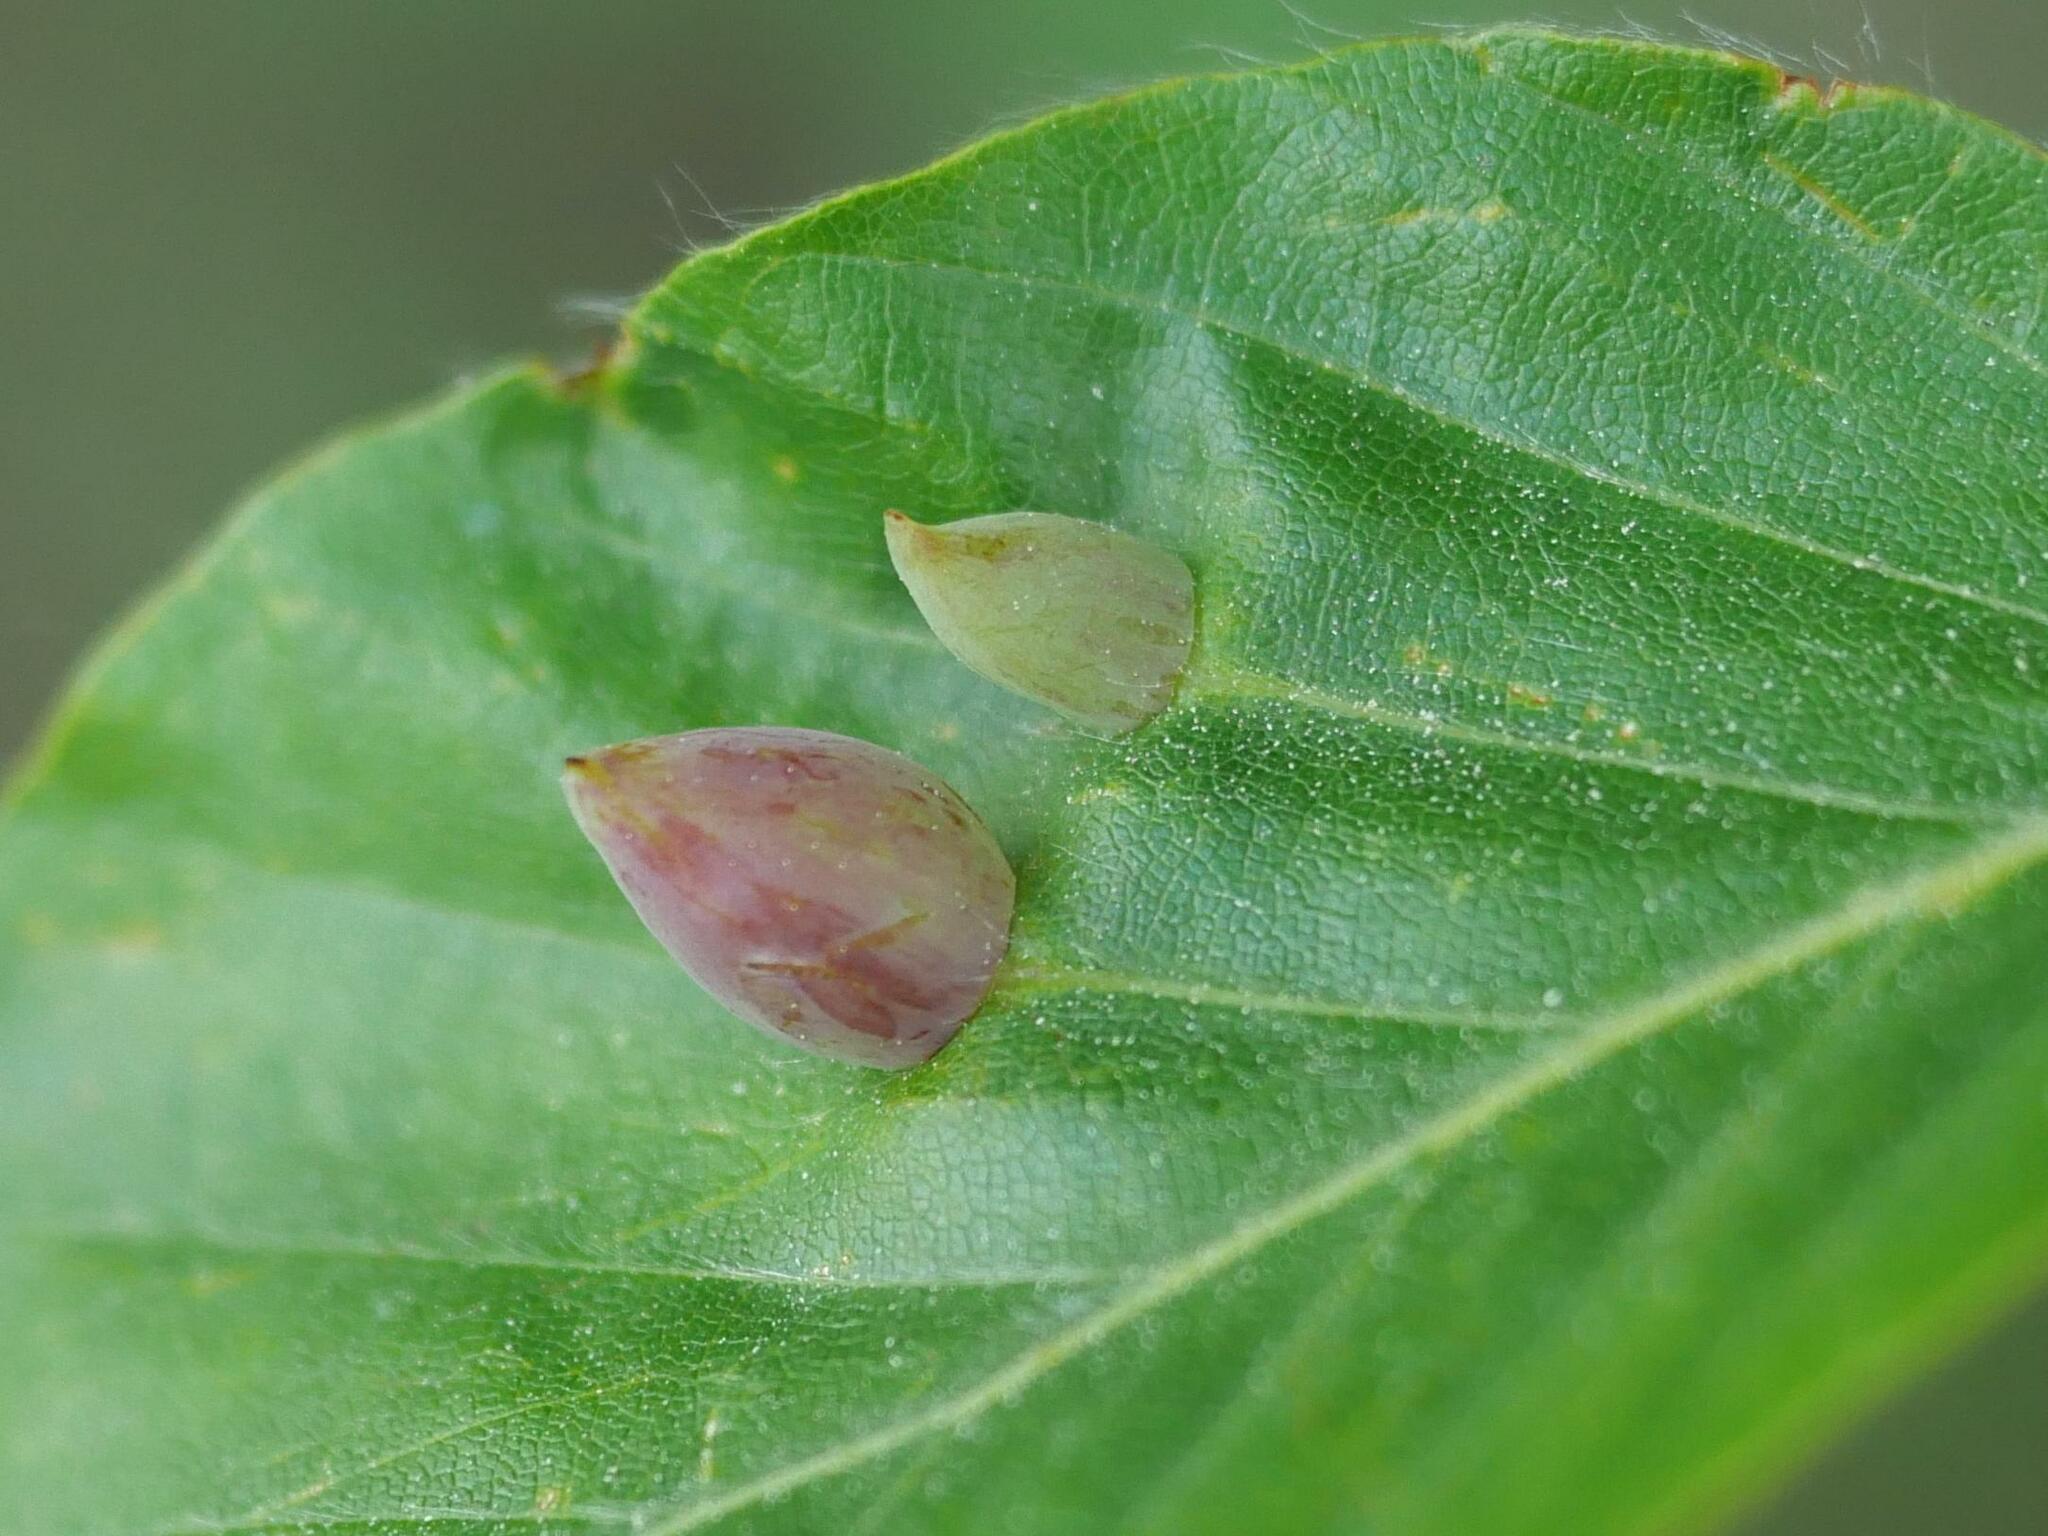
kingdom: Animalia
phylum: Arthropoda
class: Insecta
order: Diptera
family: Cecidomyiidae
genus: Mikiola
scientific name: Mikiola fagi
